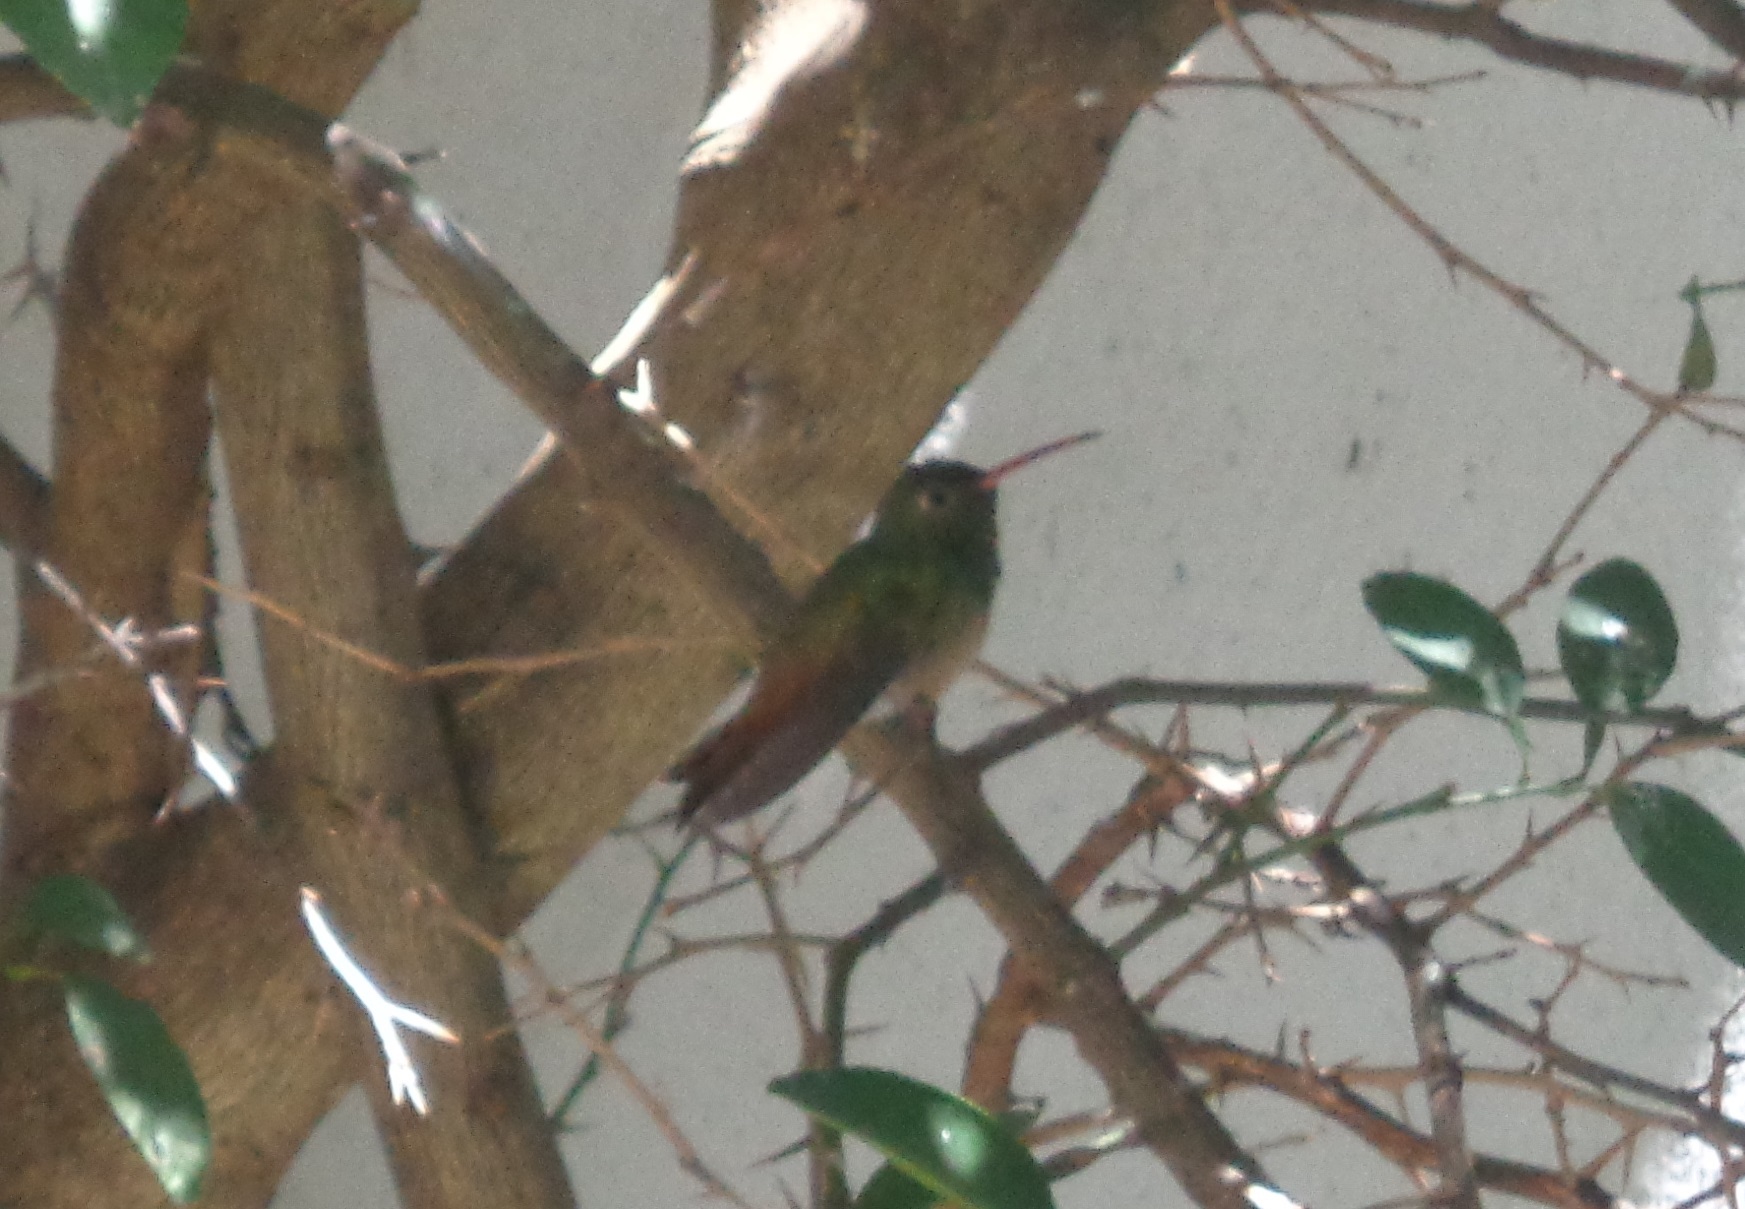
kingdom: Animalia
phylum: Chordata
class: Aves
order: Apodiformes
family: Trochilidae
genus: Amazilia
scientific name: Amazilia yucatanensis
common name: Buff-bellied hummingbird
